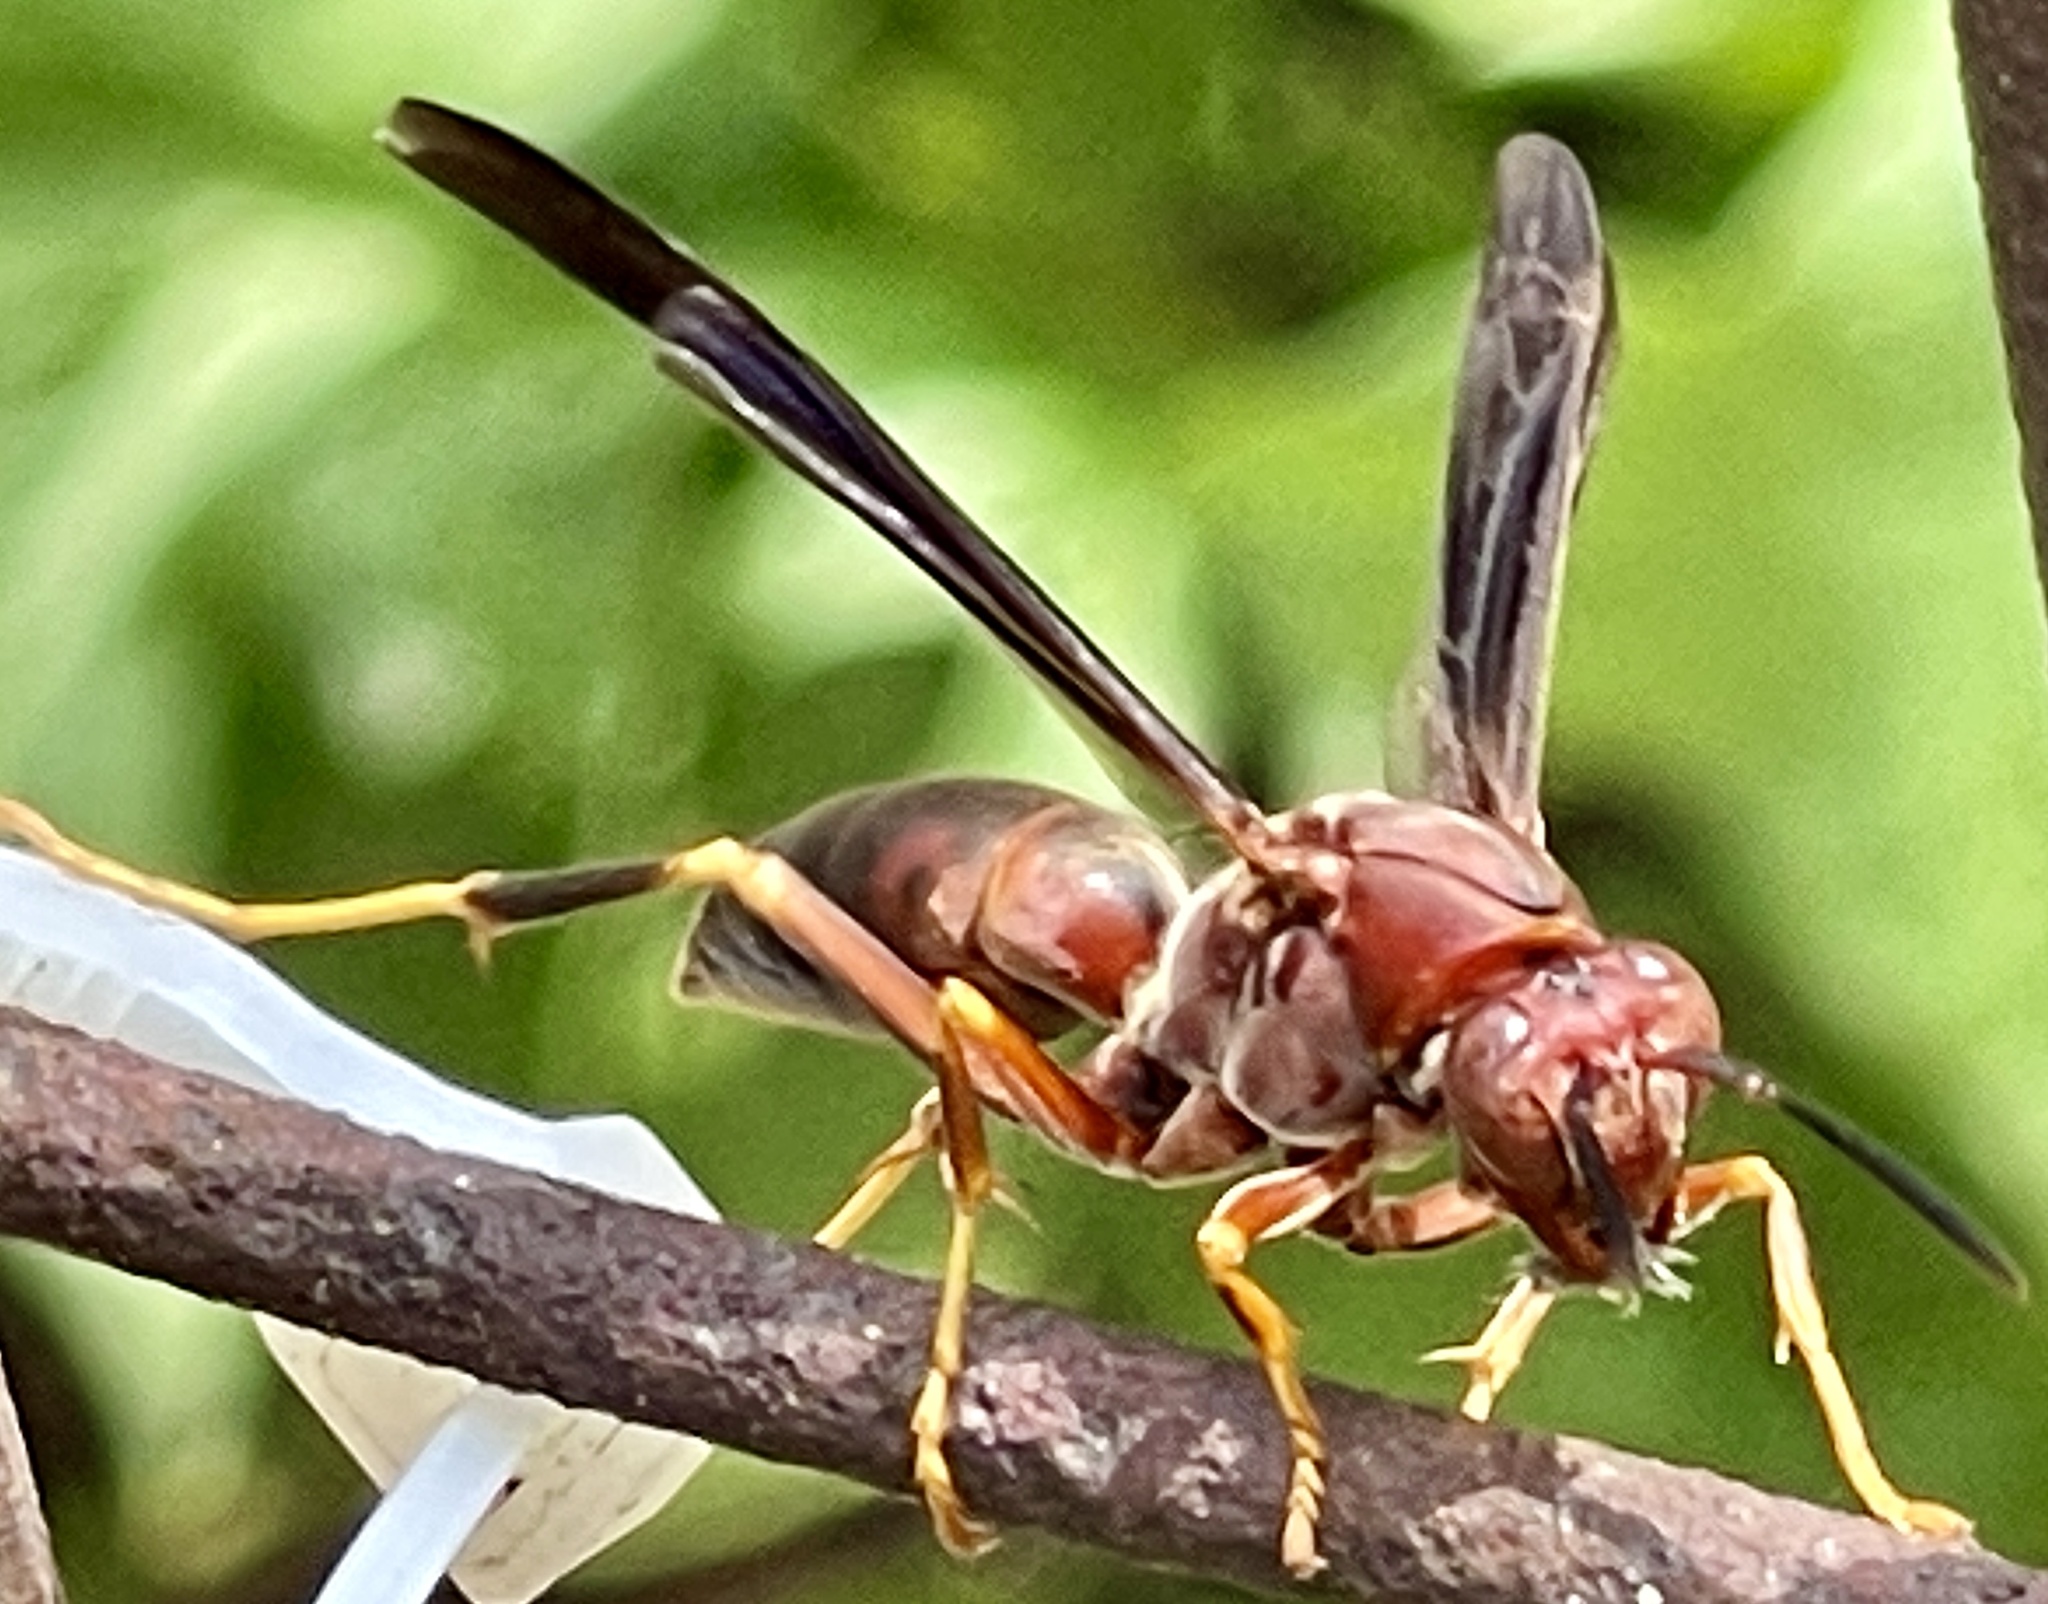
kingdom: Animalia
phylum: Arthropoda
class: Insecta
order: Hymenoptera
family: Eumenidae
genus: Polistes
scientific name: Polistes metricus
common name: Metric paper wasp
